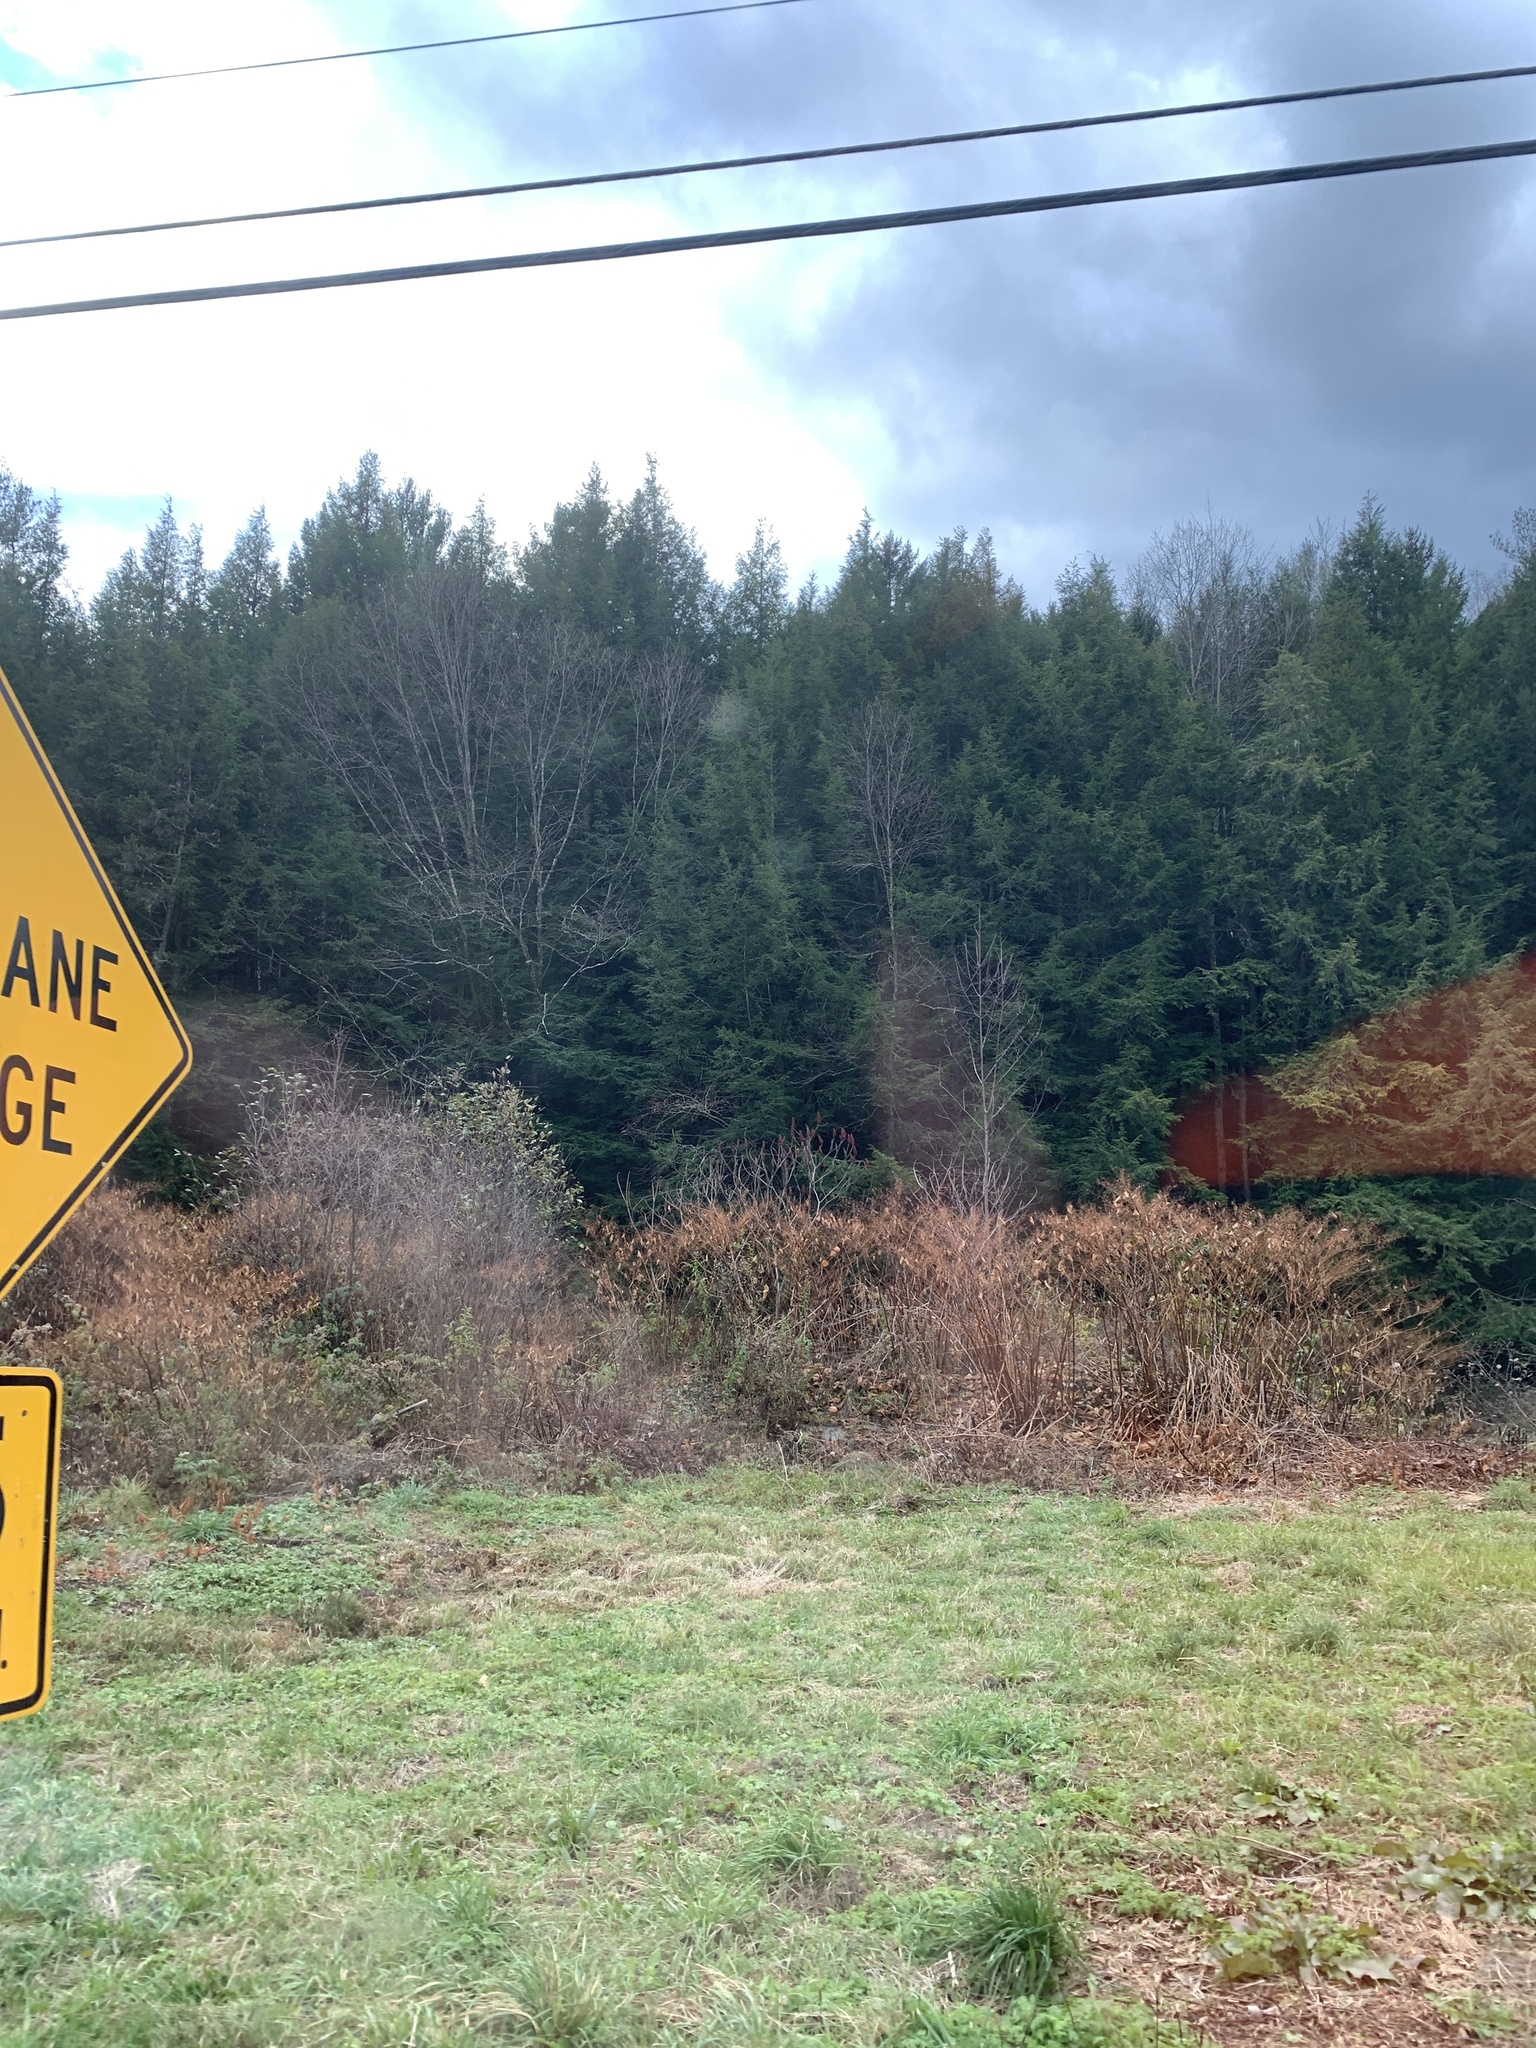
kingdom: Plantae
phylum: Tracheophyta
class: Pinopsida
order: Pinales
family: Pinaceae
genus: Tsuga
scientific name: Tsuga canadensis
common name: Eastern hemlock
